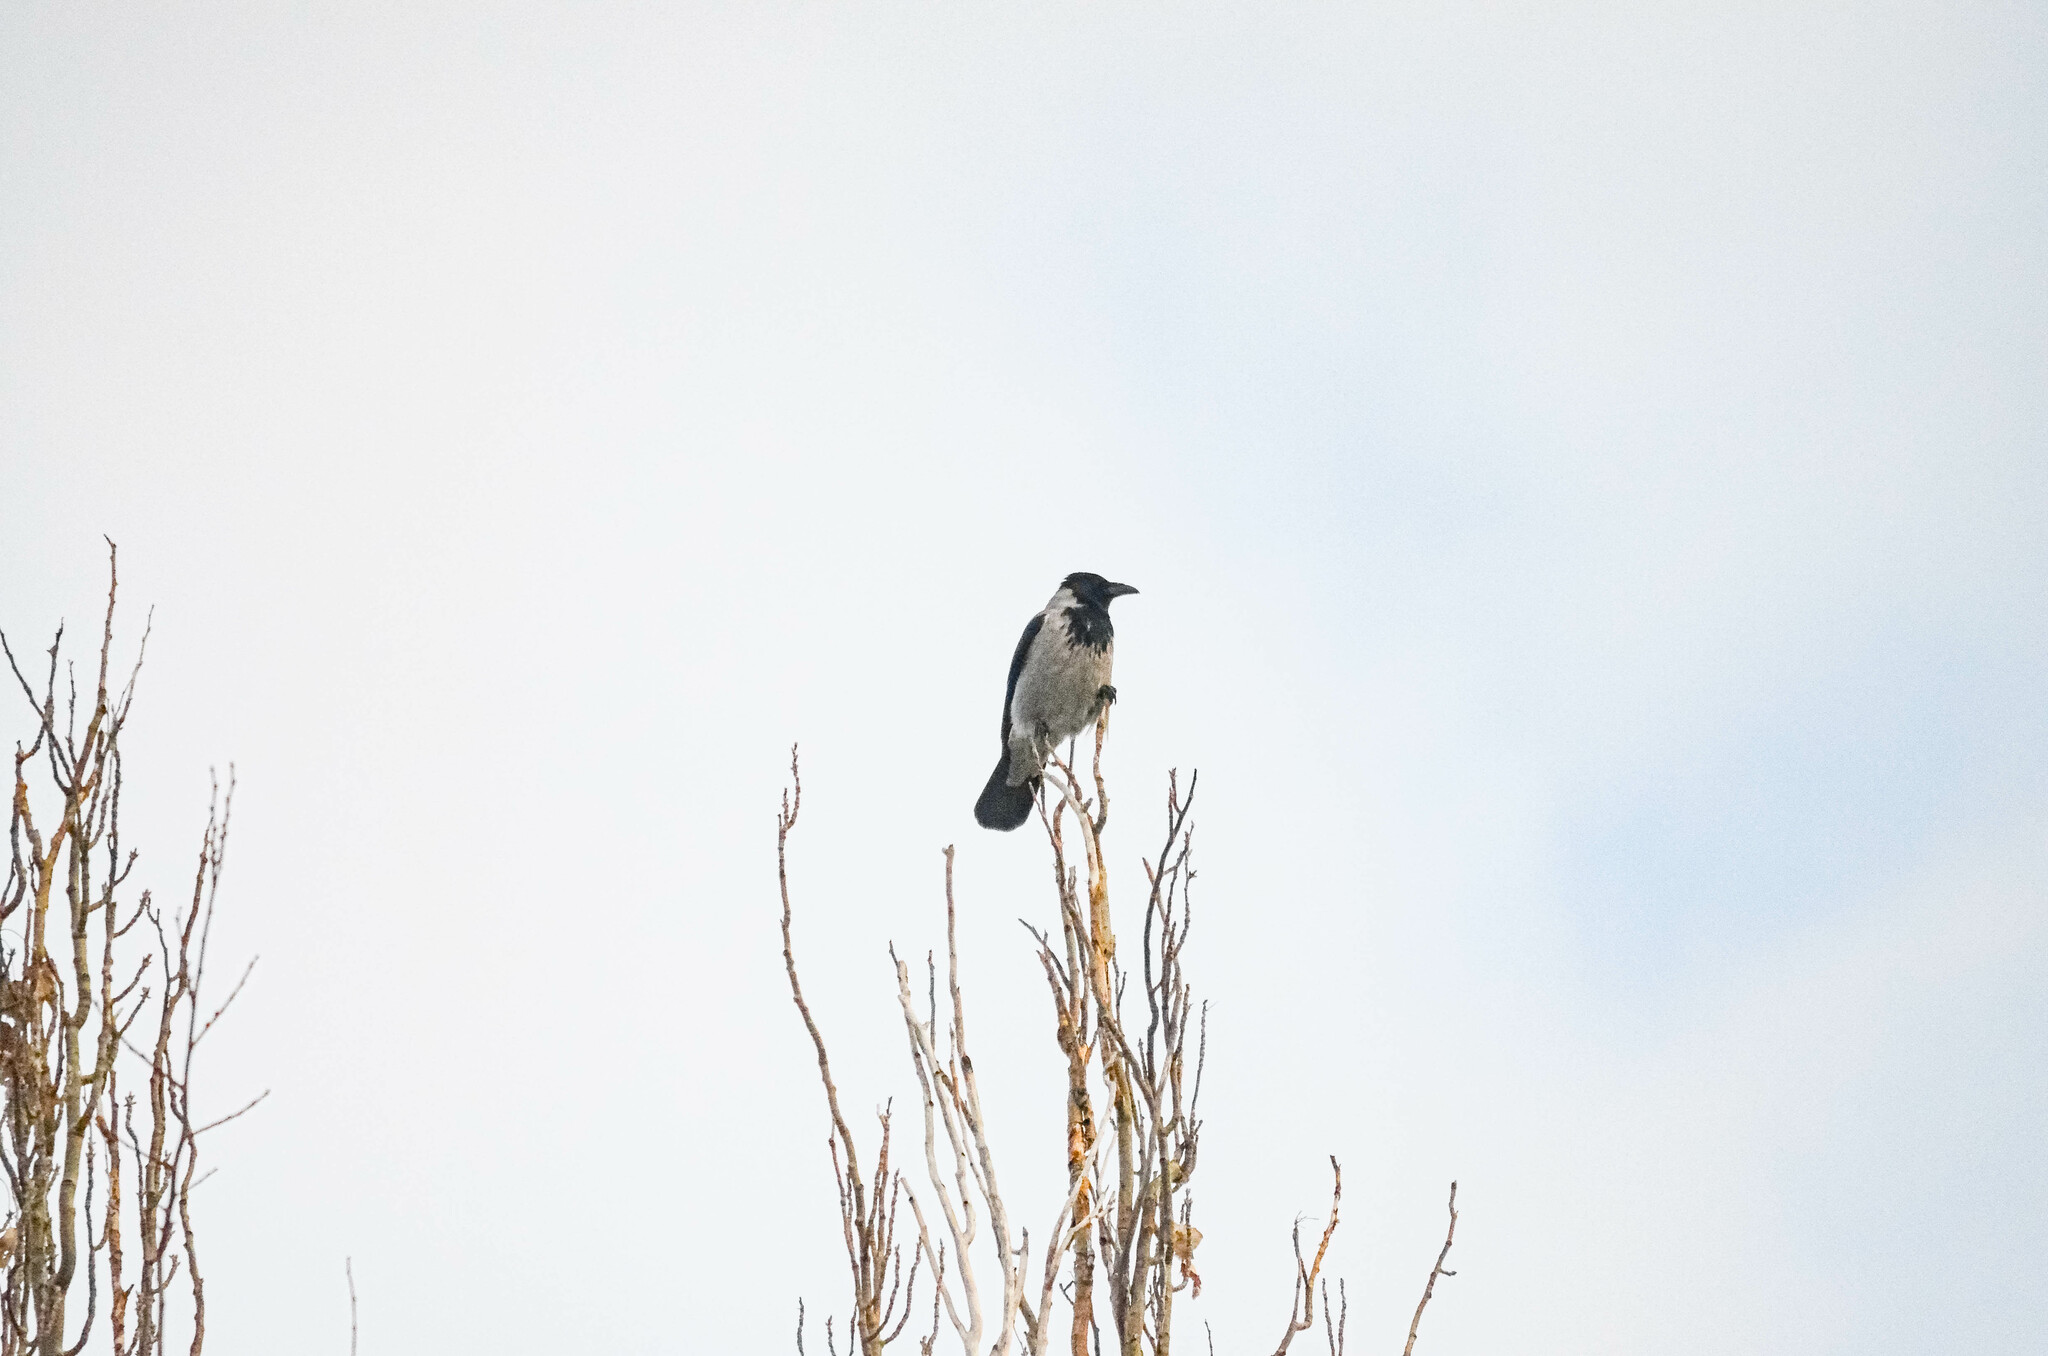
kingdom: Animalia
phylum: Chordata
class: Aves
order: Passeriformes
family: Corvidae
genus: Corvus
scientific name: Corvus cornix
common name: Hooded crow
